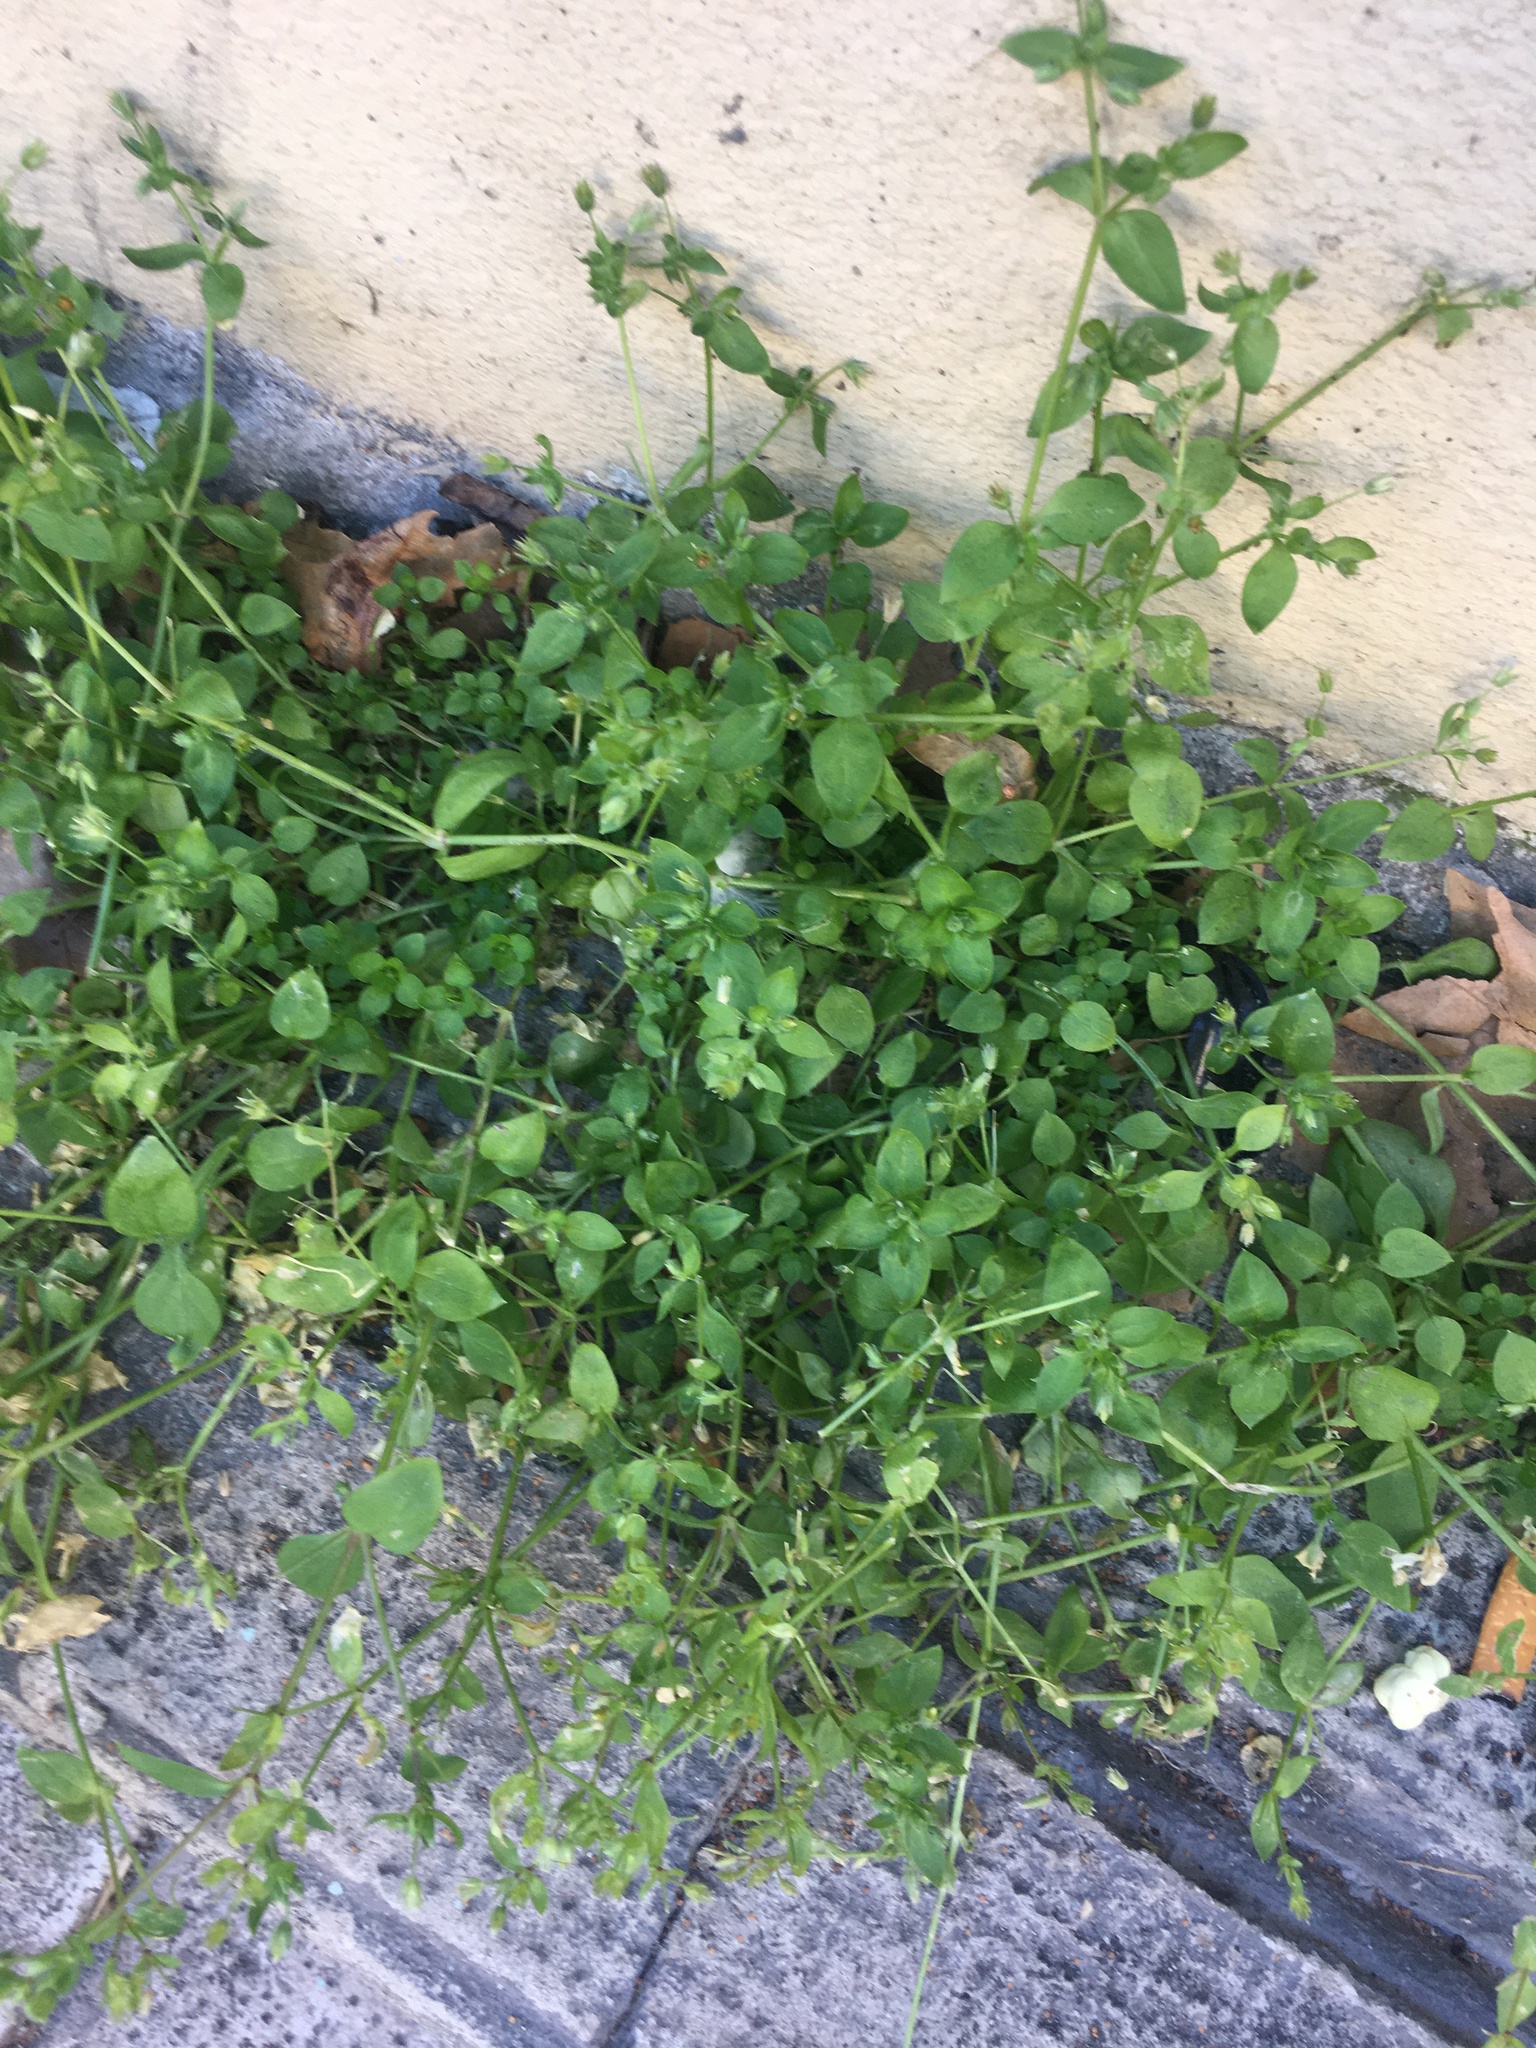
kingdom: Plantae
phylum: Tracheophyta
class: Magnoliopsida
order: Caryophyllales
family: Caryophyllaceae
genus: Stellaria
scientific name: Stellaria media
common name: Common chickweed
